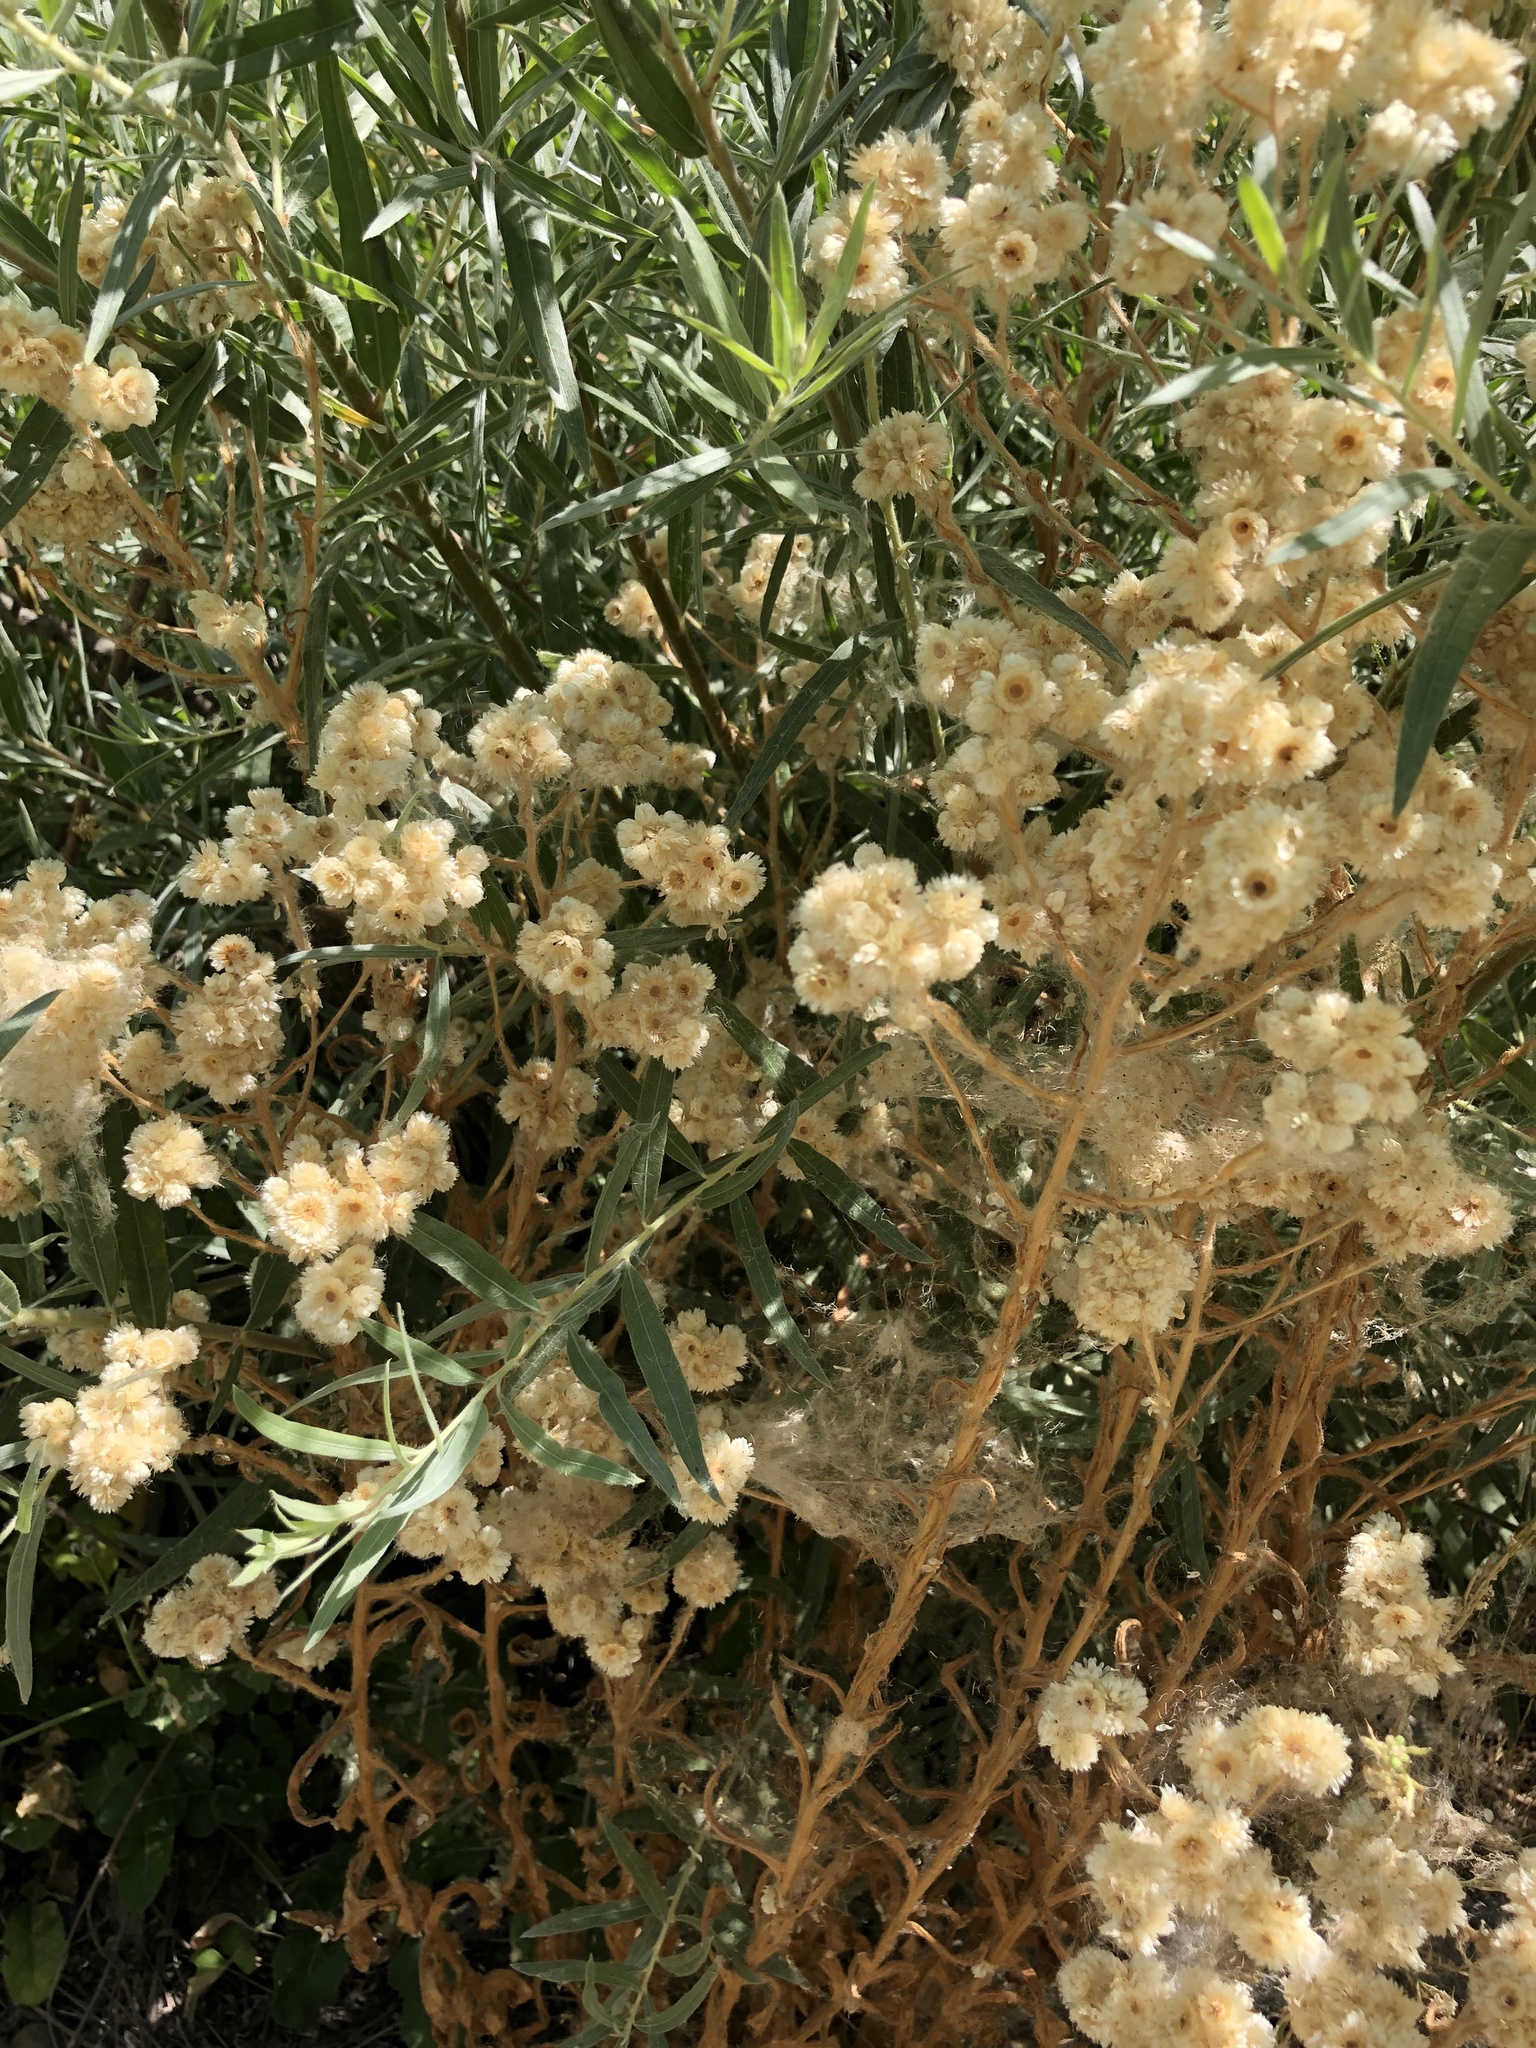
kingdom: Plantae
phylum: Tracheophyta
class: Magnoliopsida
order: Asterales
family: Asteraceae
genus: Pseudognaphalium
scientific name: Pseudognaphalium californicum
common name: California rabbit-tobacco
